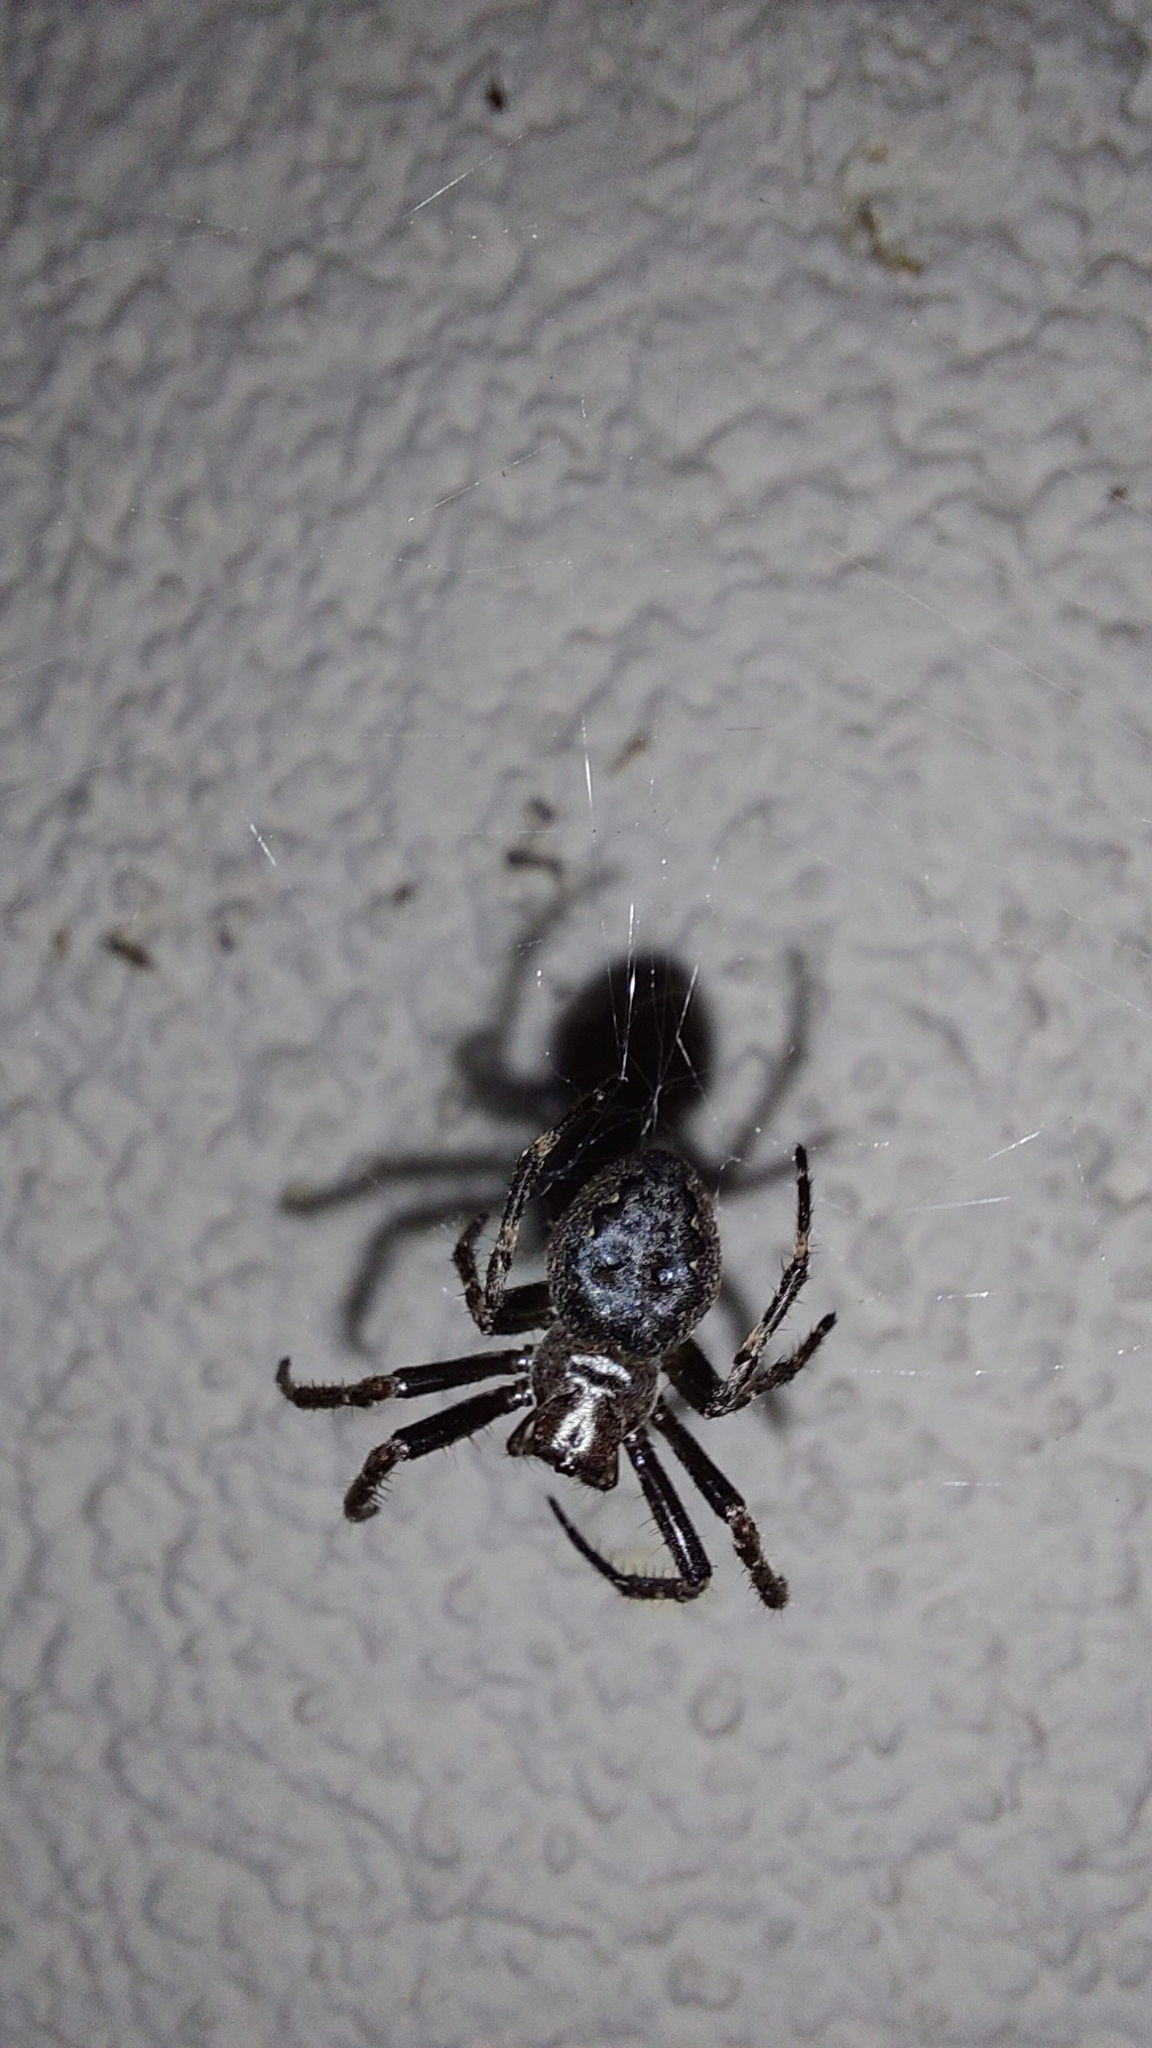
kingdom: Animalia
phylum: Arthropoda
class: Arachnida
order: Araneae
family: Araneidae
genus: Nuctenea
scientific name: Nuctenea umbratica
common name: Toad spider
